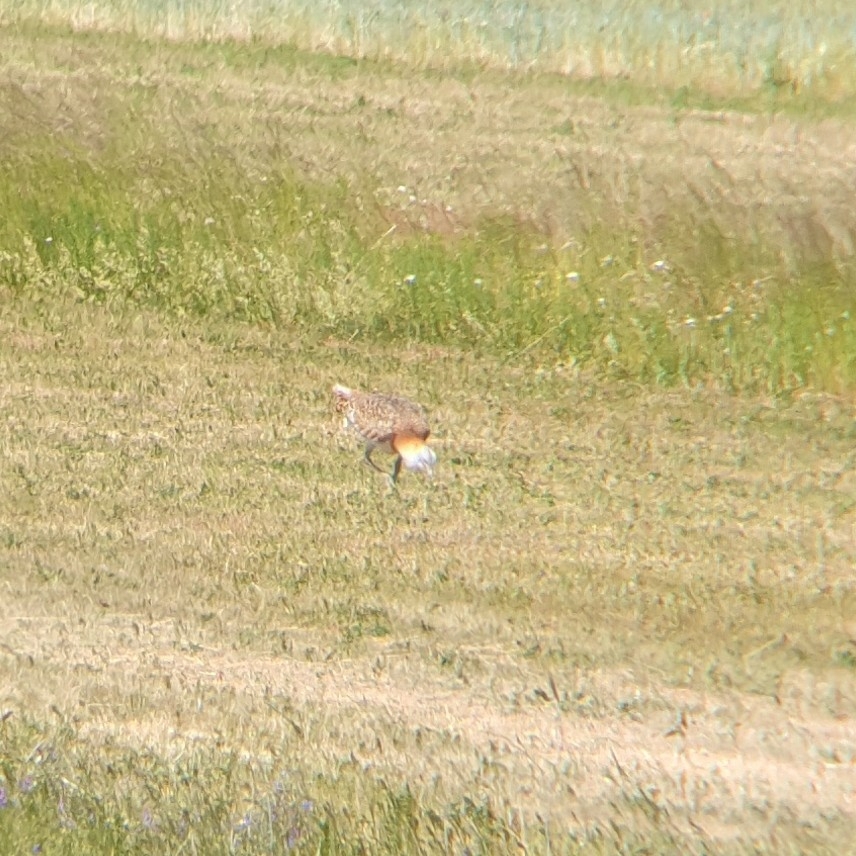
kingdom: Animalia
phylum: Chordata
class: Aves
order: Otidiformes
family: Otididae
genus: Otis
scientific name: Otis tarda
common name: Great bustard
